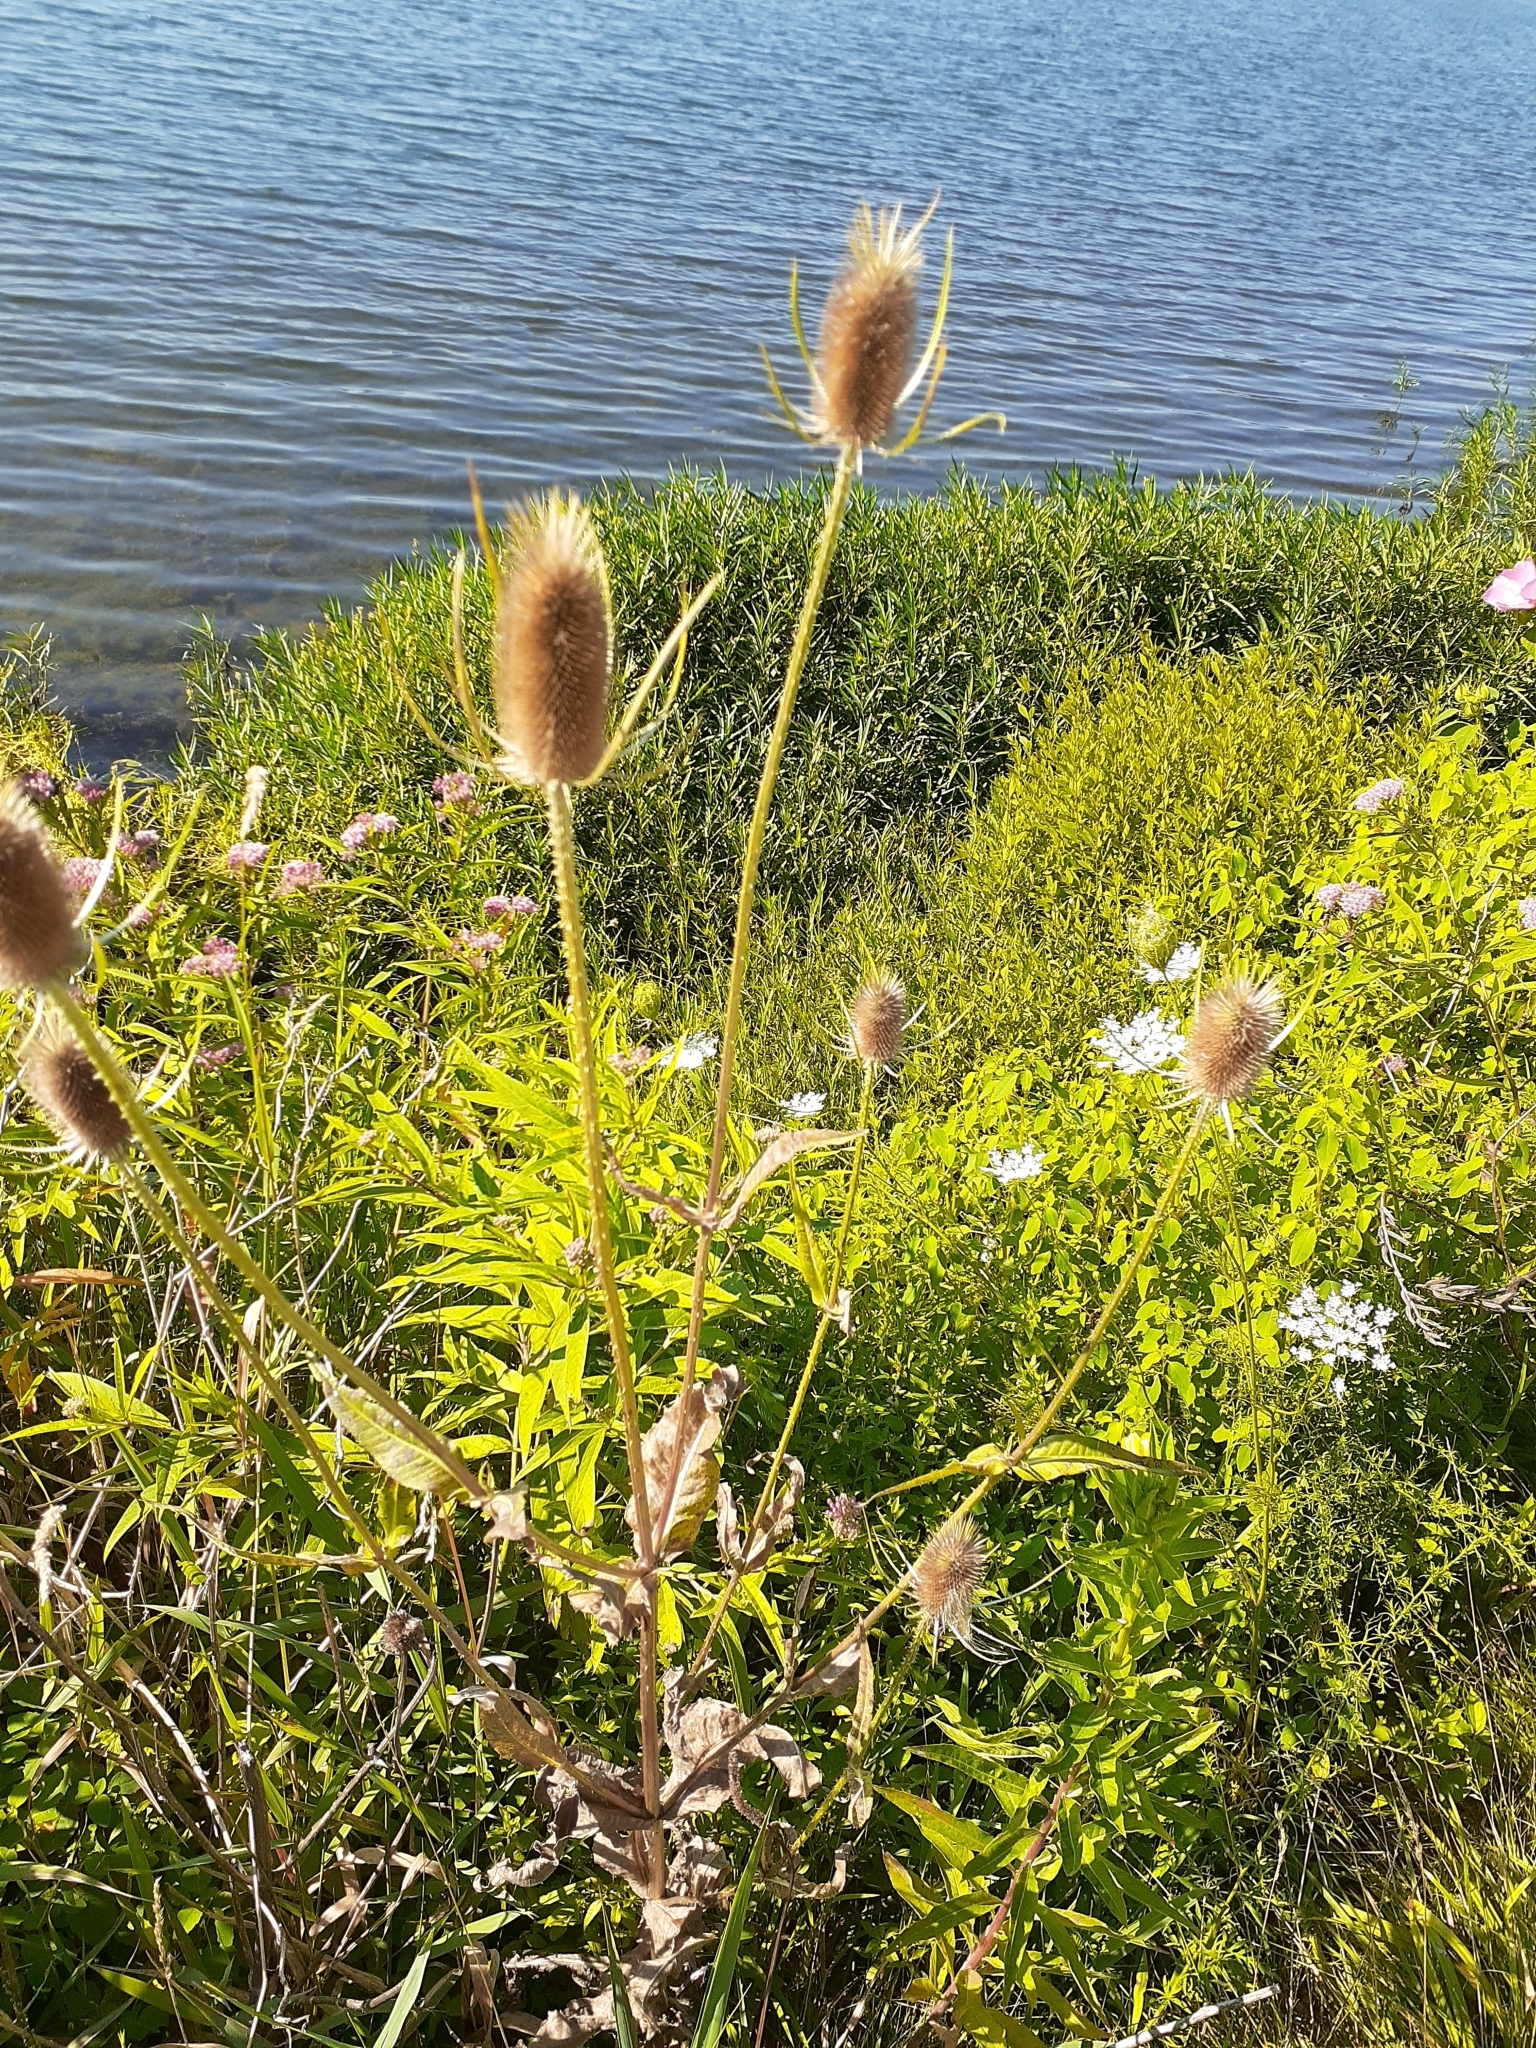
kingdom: Plantae
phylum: Tracheophyta
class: Magnoliopsida
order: Dipsacales
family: Caprifoliaceae
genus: Dipsacus
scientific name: Dipsacus fullonum
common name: Teasel
